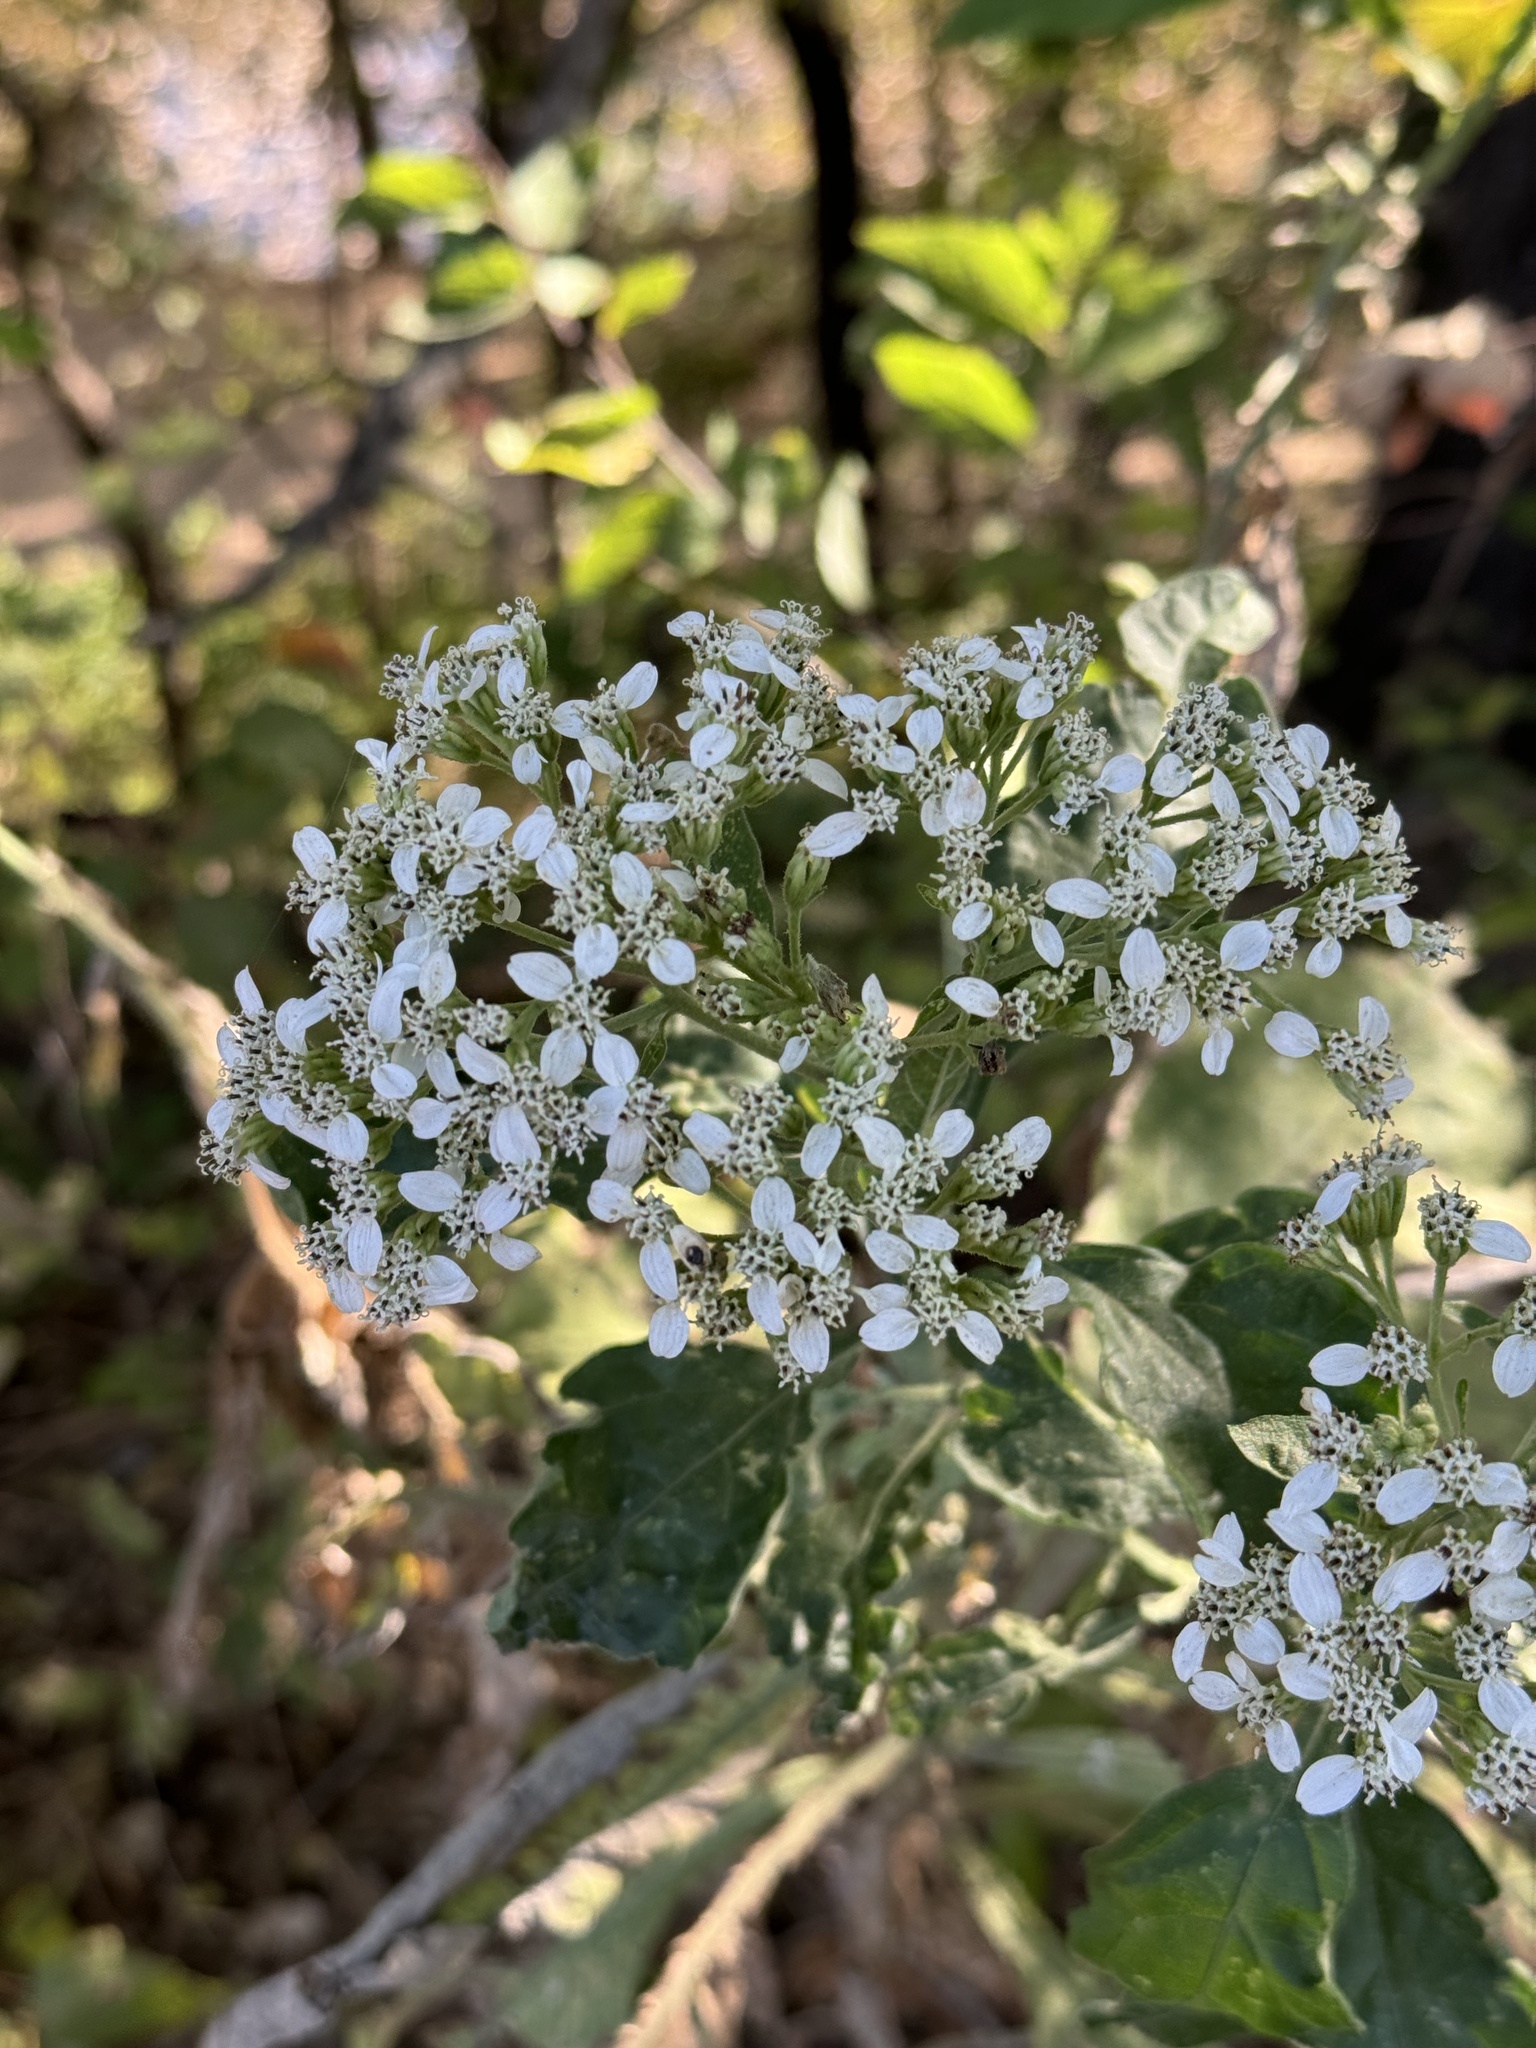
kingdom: Plantae
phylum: Tracheophyta
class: Magnoliopsida
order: Asterales
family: Asteraceae
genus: Verbesina
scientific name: Verbesina virginica
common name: Frostweed
